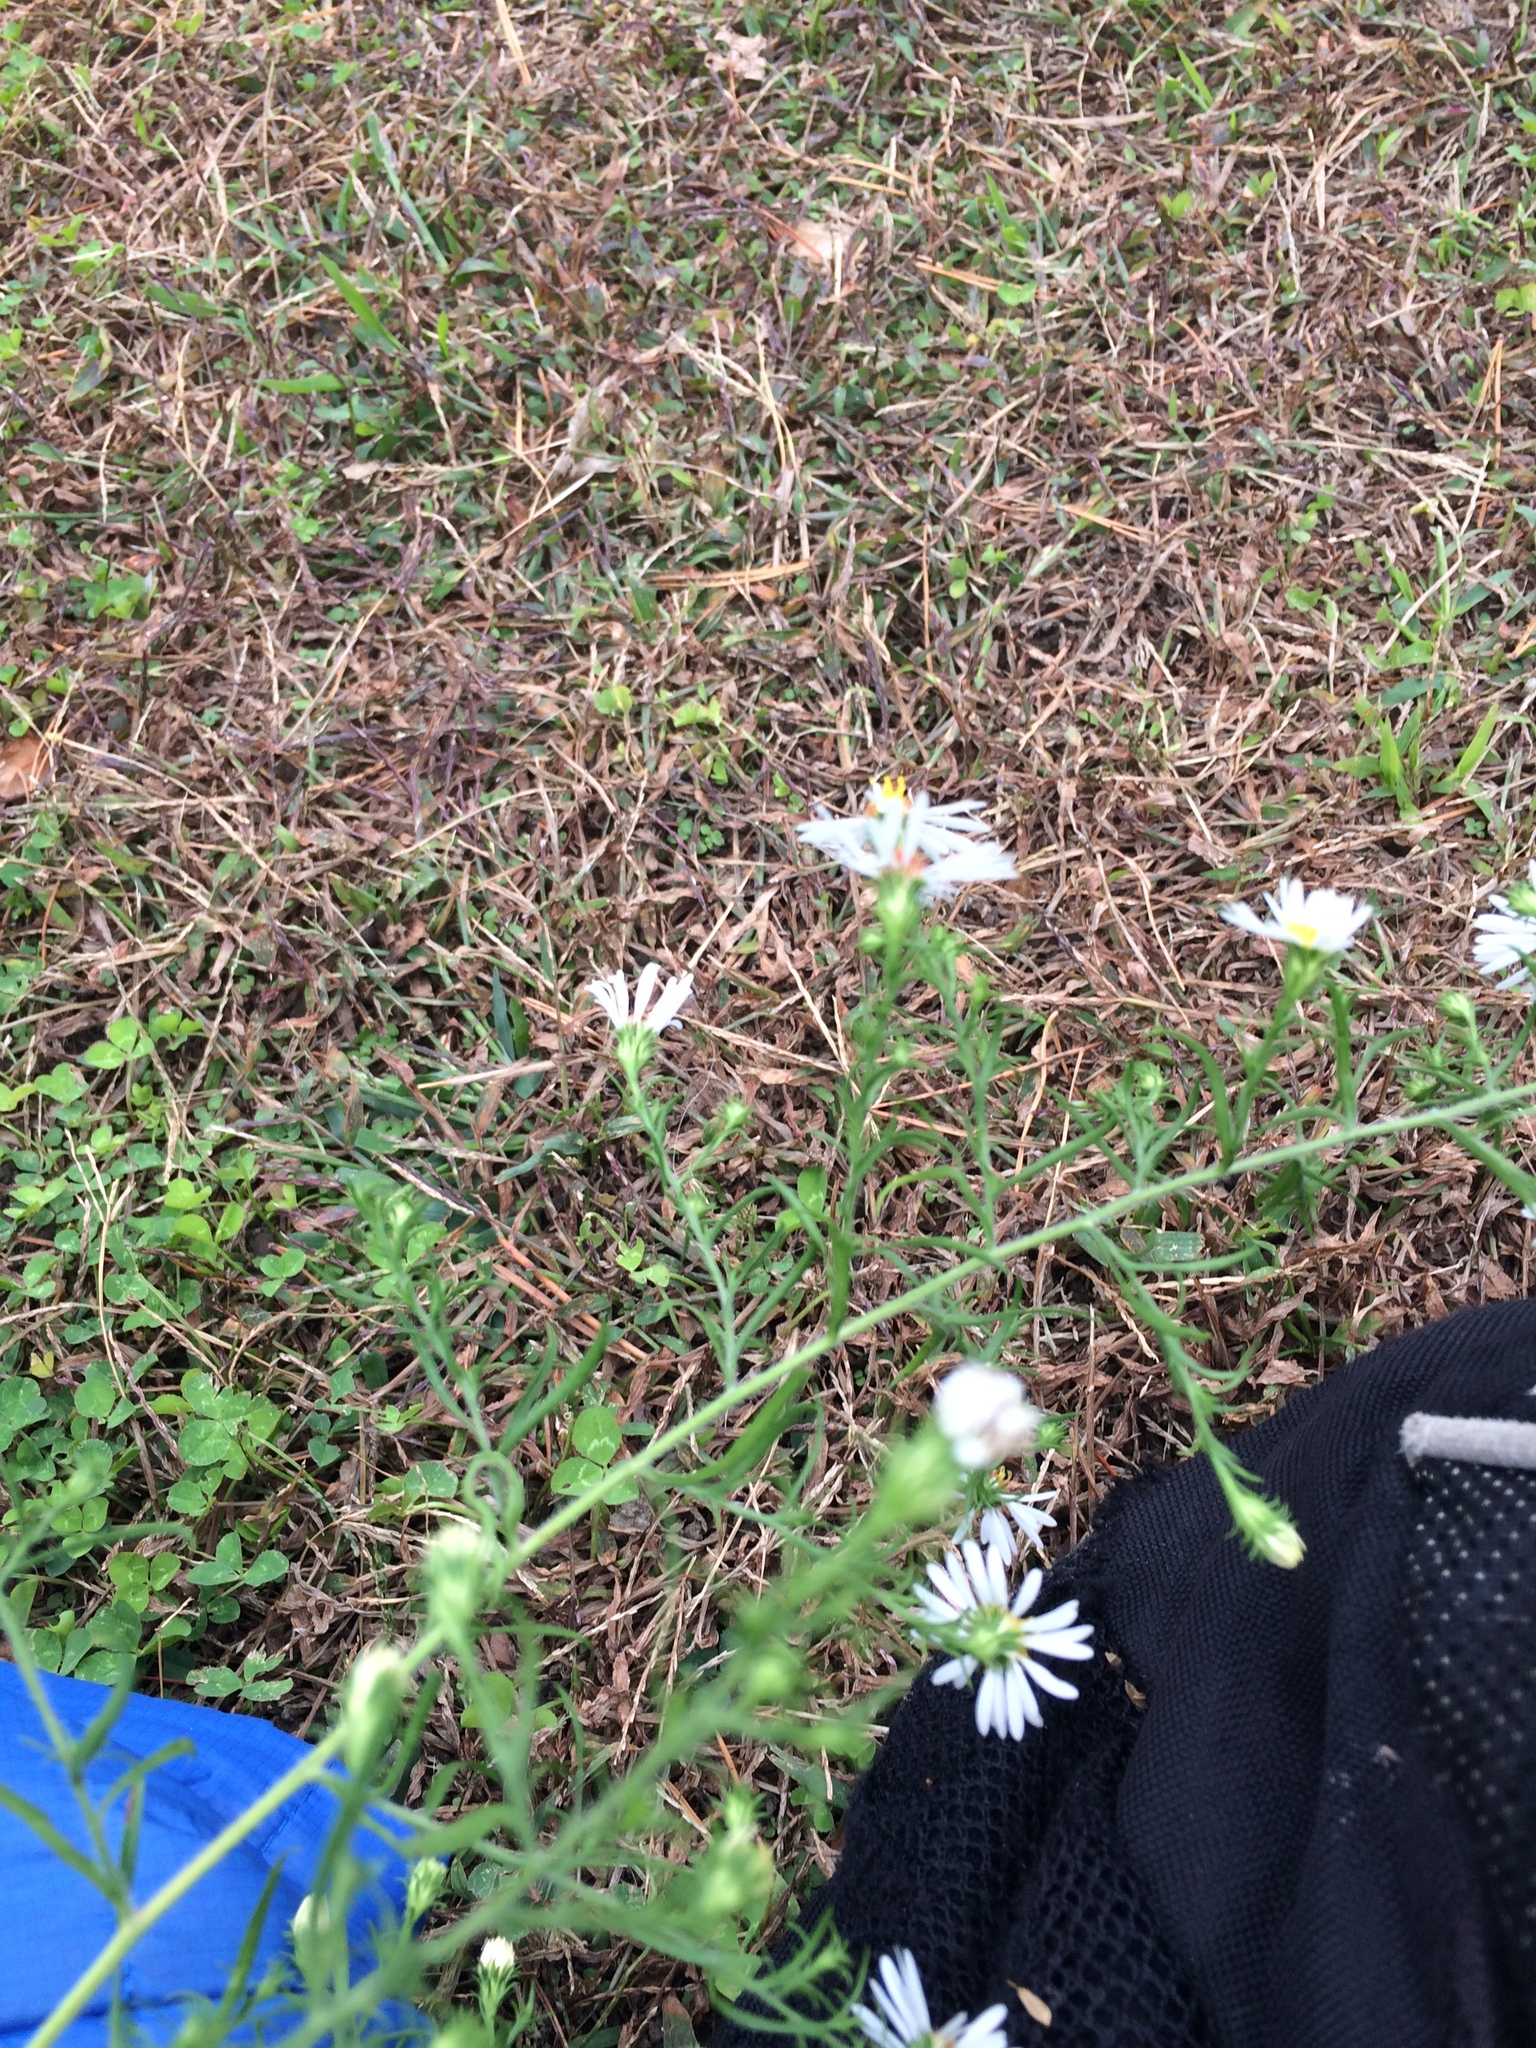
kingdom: Plantae
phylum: Tracheophyta
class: Magnoliopsida
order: Asterales
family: Asteraceae
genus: Symphyotrichum
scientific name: Symphyotrichum pilosum
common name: Awl aster
